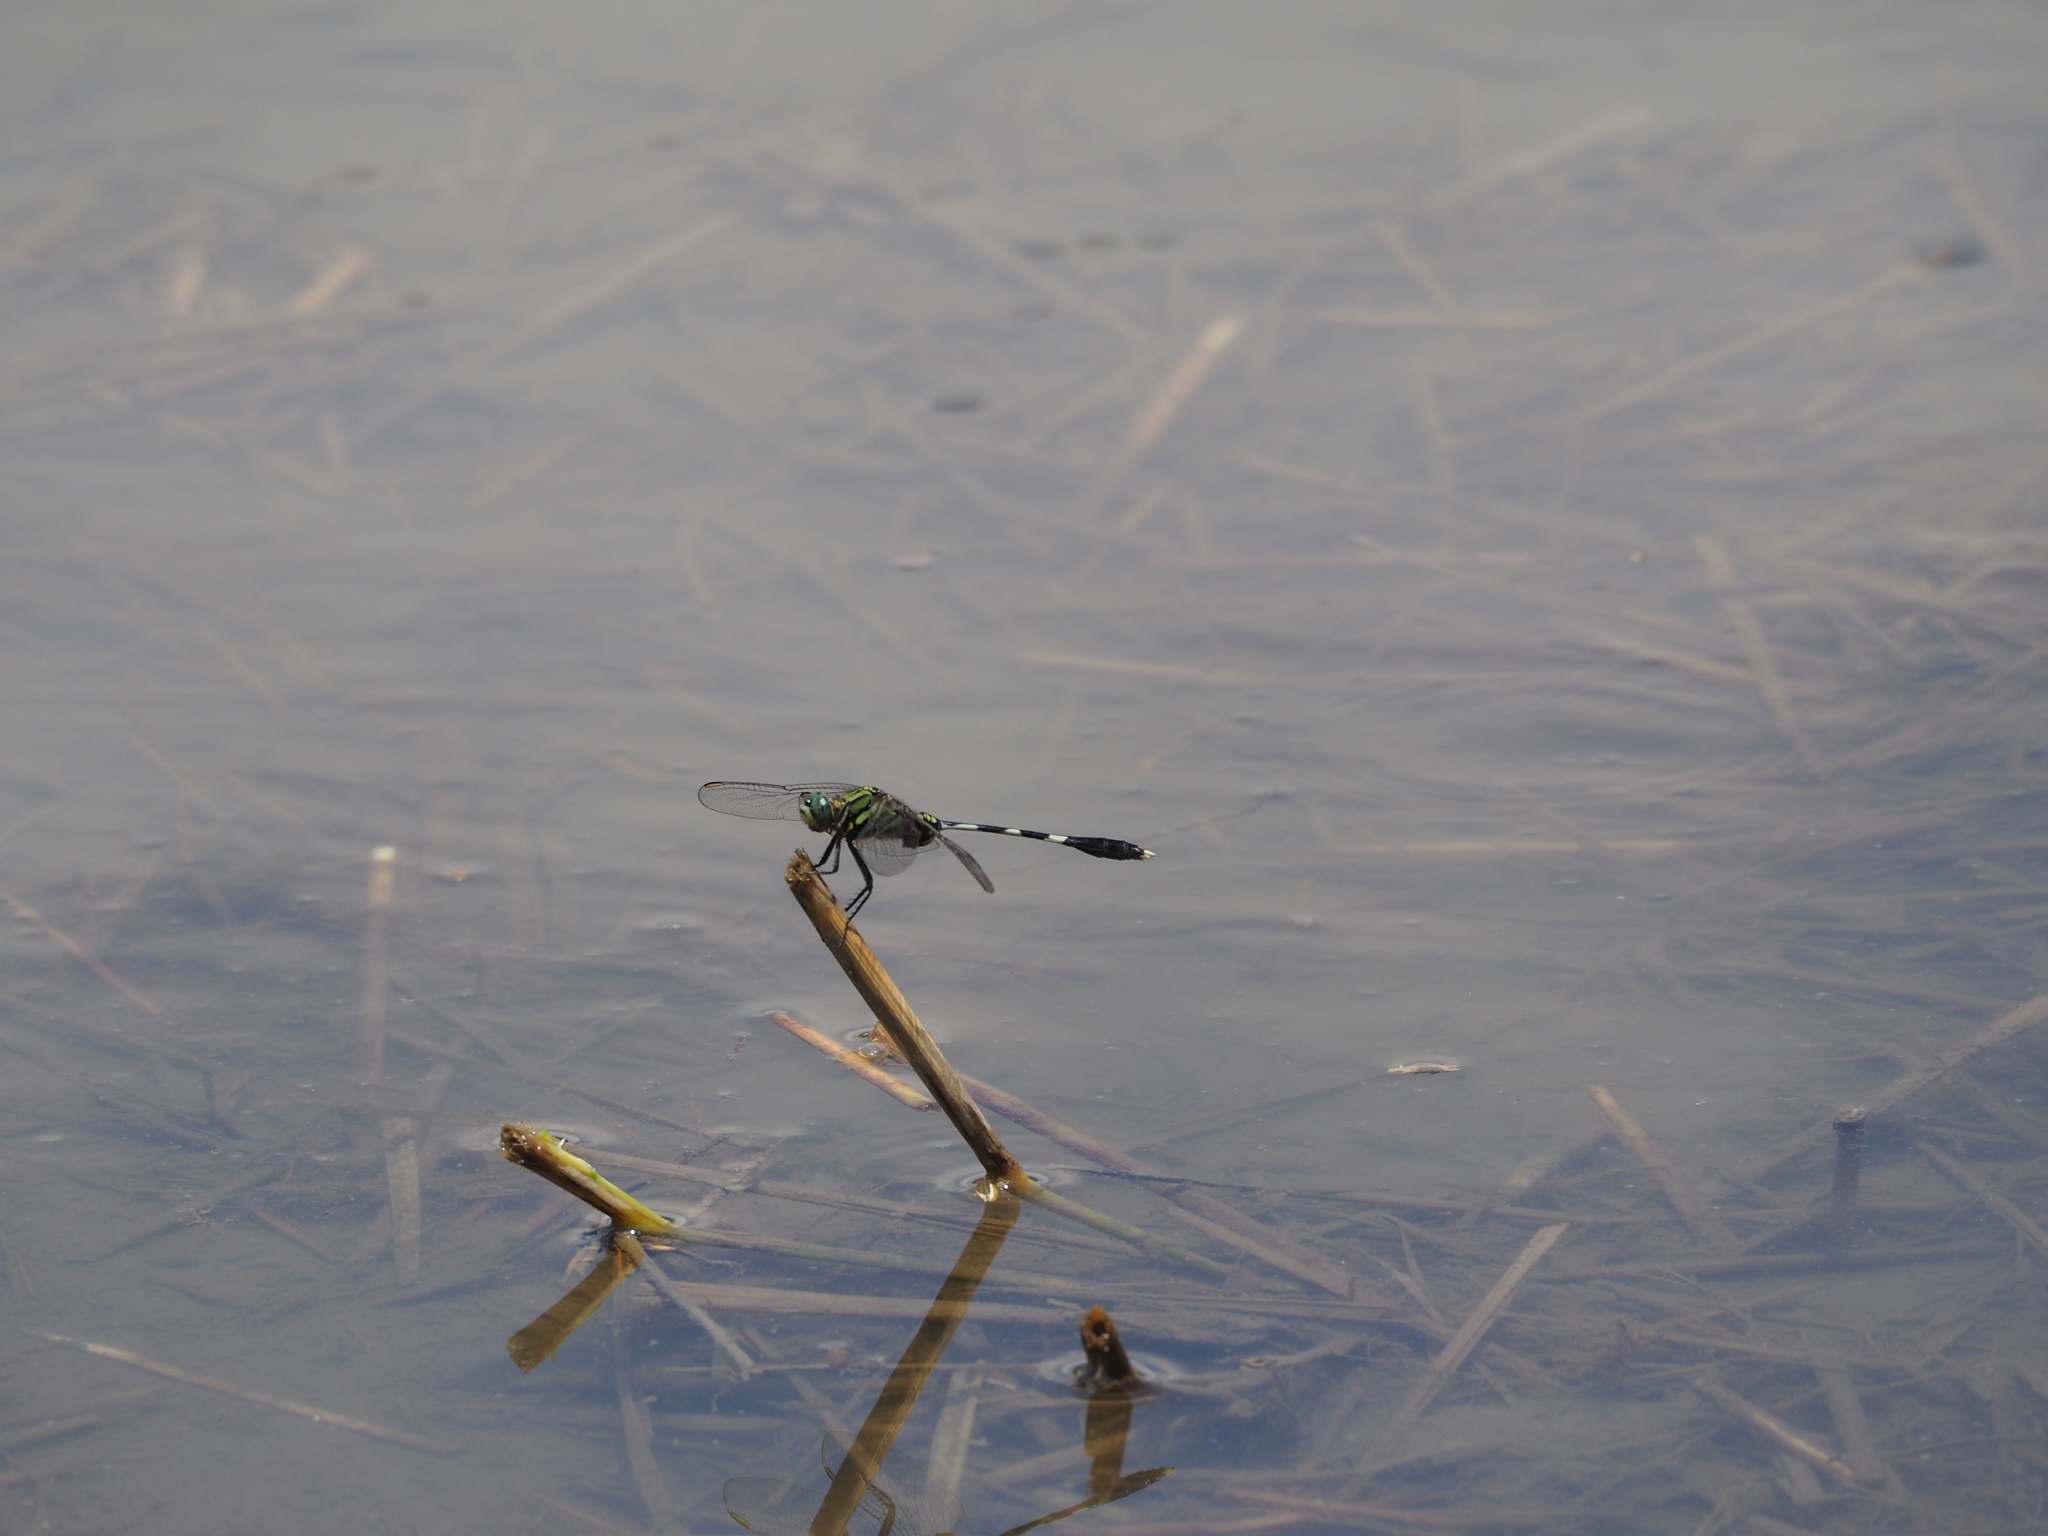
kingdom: Animalia
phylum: Arthropoda
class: Insecta
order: Odonata
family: Libellulidae
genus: Orthetrum
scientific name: Orthetrum sabina
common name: Slender skimmer
